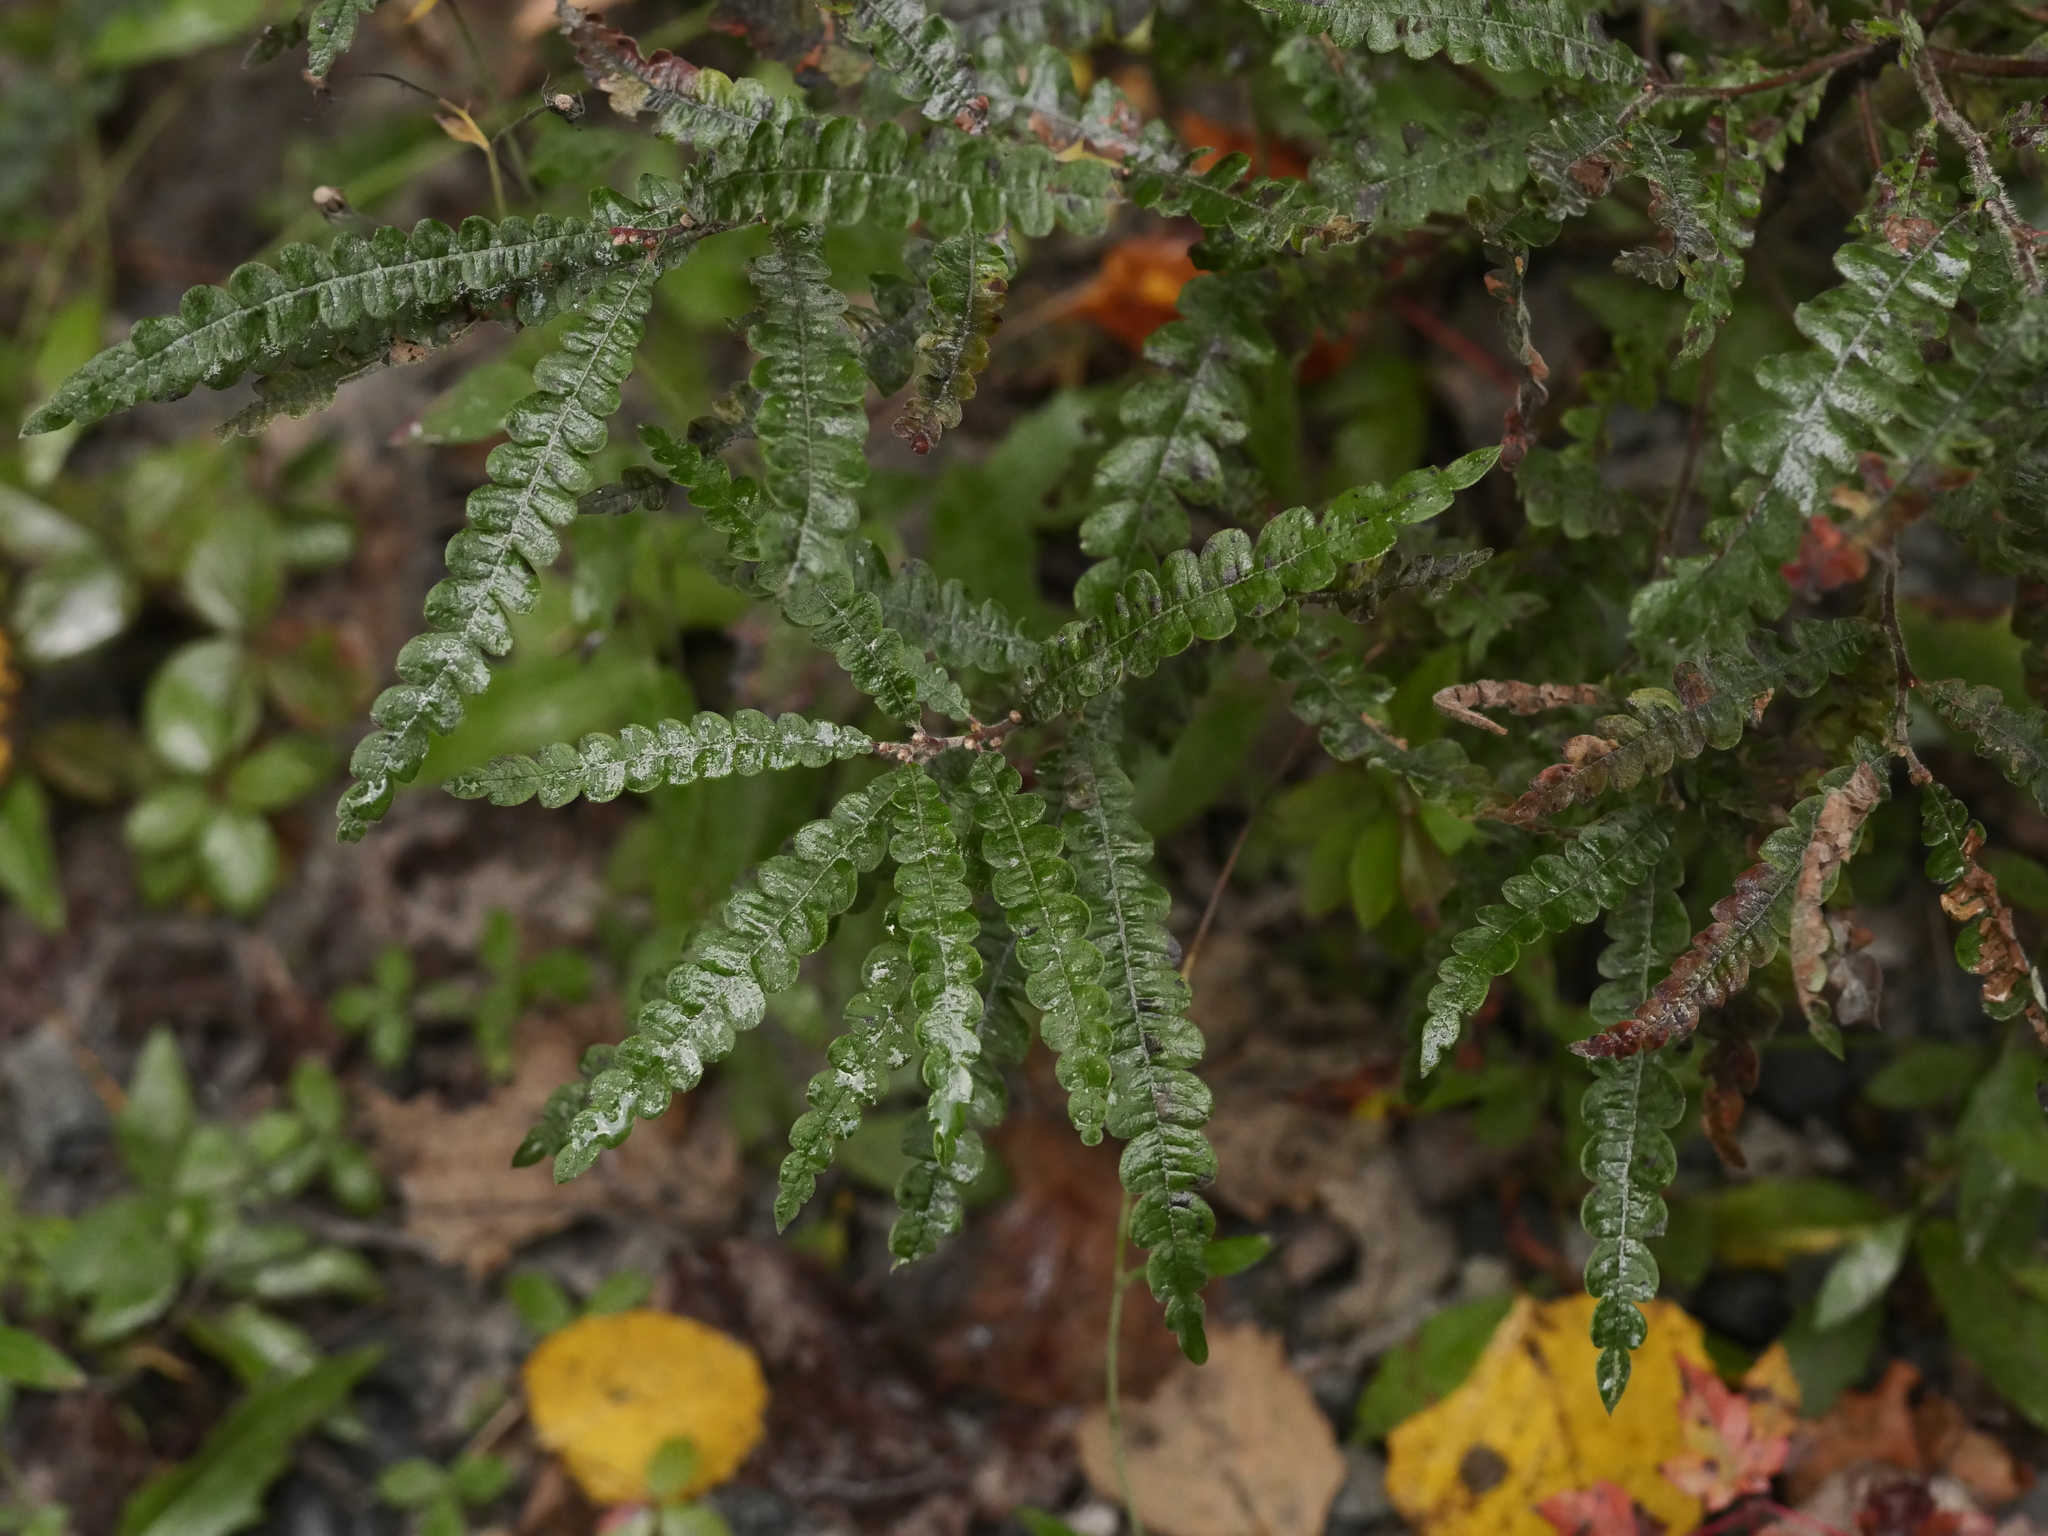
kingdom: Plantae
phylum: Tracheophyta
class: Magnoliopsida
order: Fagales
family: Myricaceae
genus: Comptonia
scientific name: Comptonia peregrina
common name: Sweet-fern
